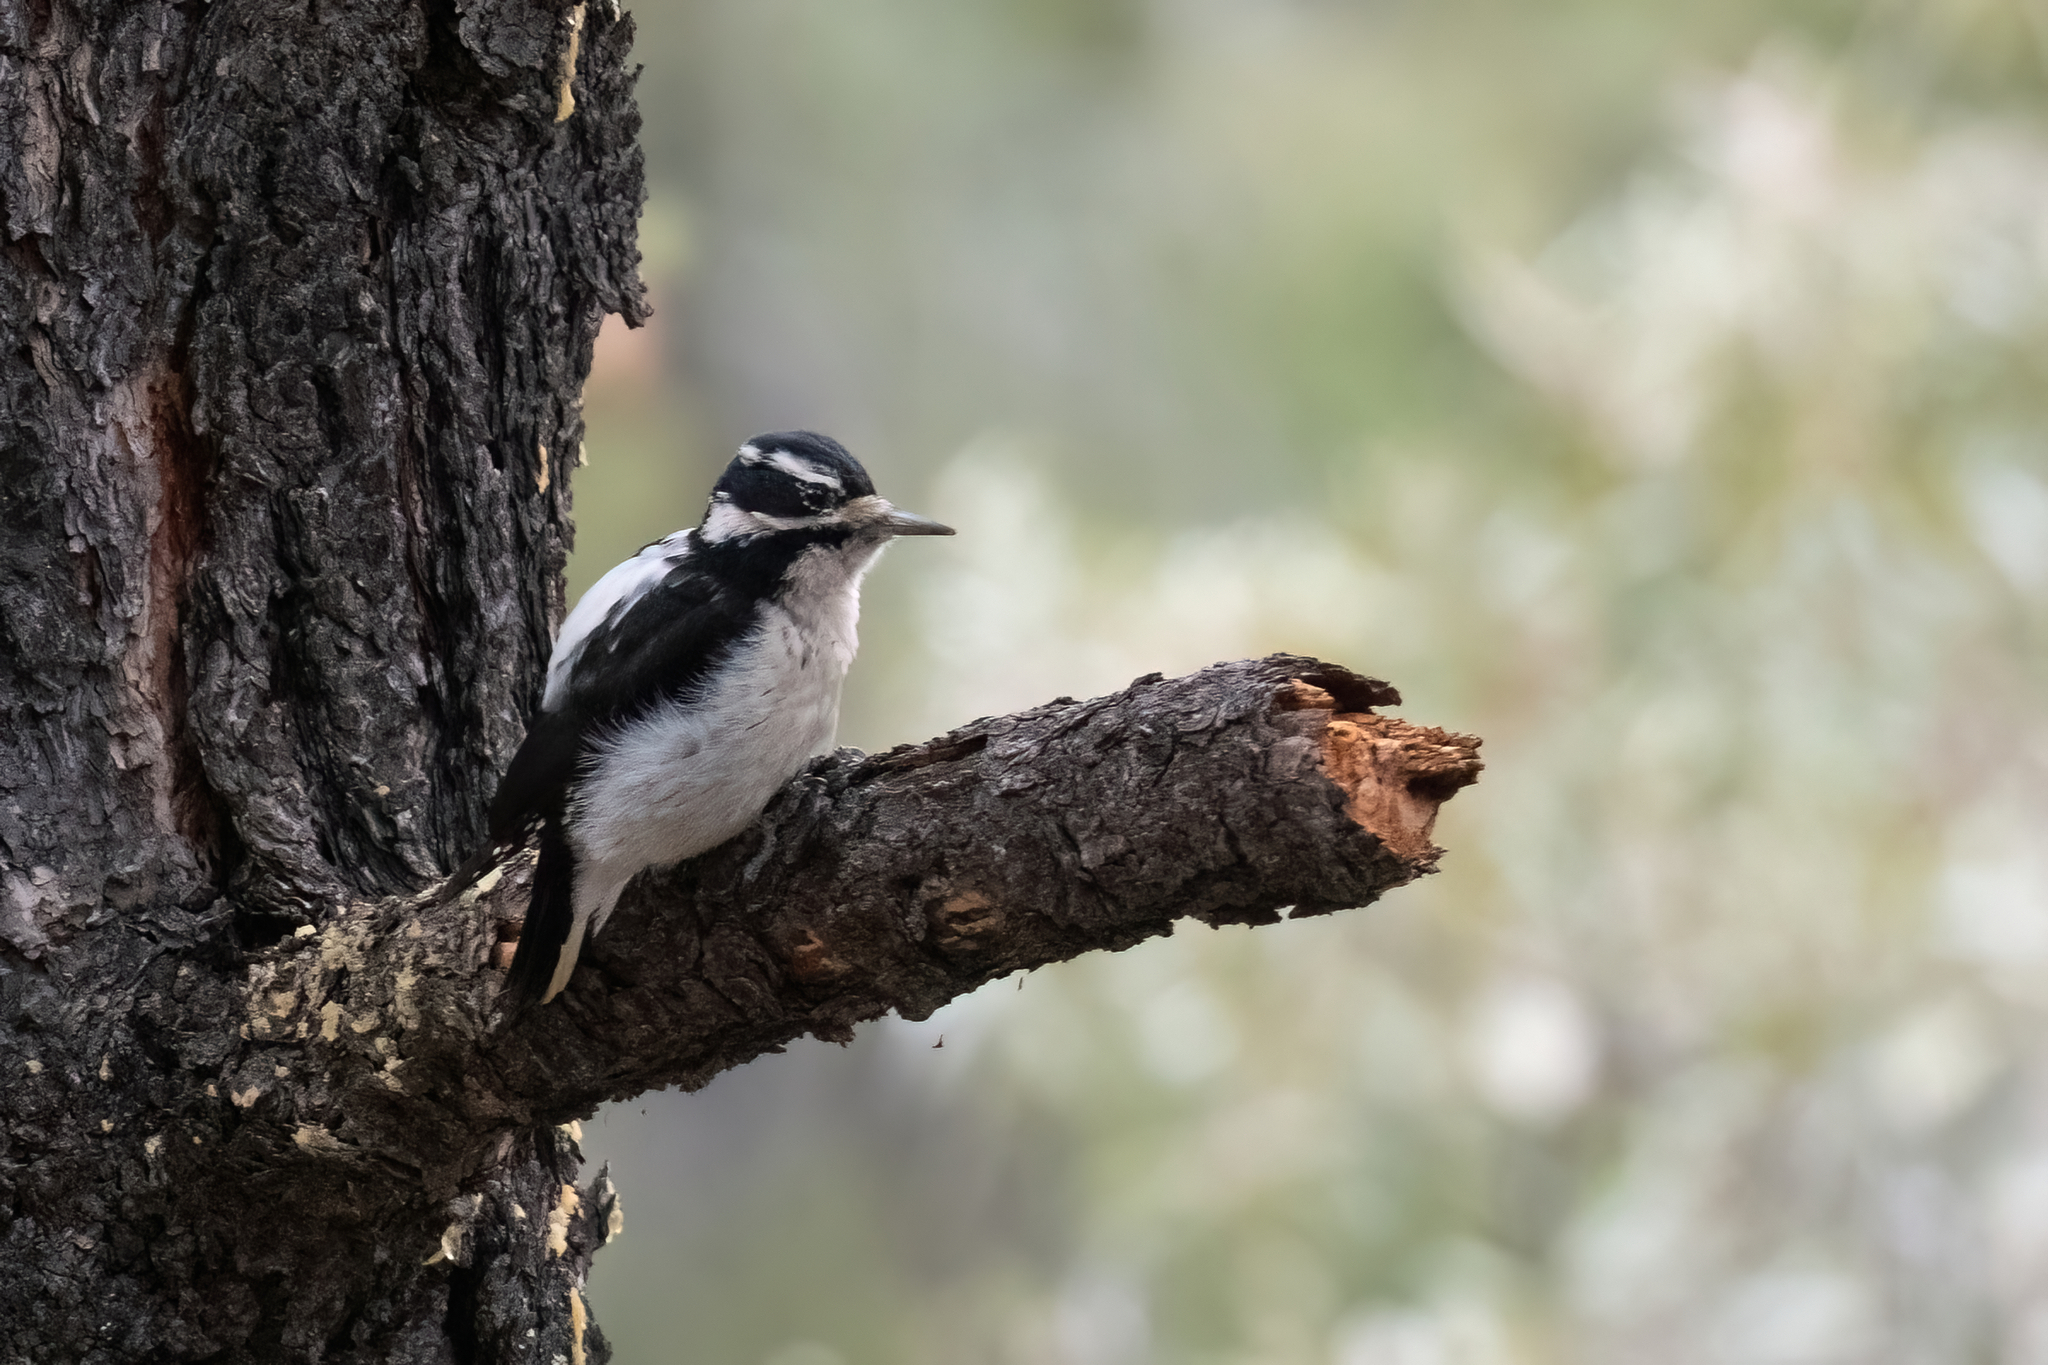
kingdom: Animalia
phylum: Chordata
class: Aves
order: Piciformes
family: Picidae
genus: Leuconotopicus
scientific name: Leuconotopicus villosus
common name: Hairy woodpecker
